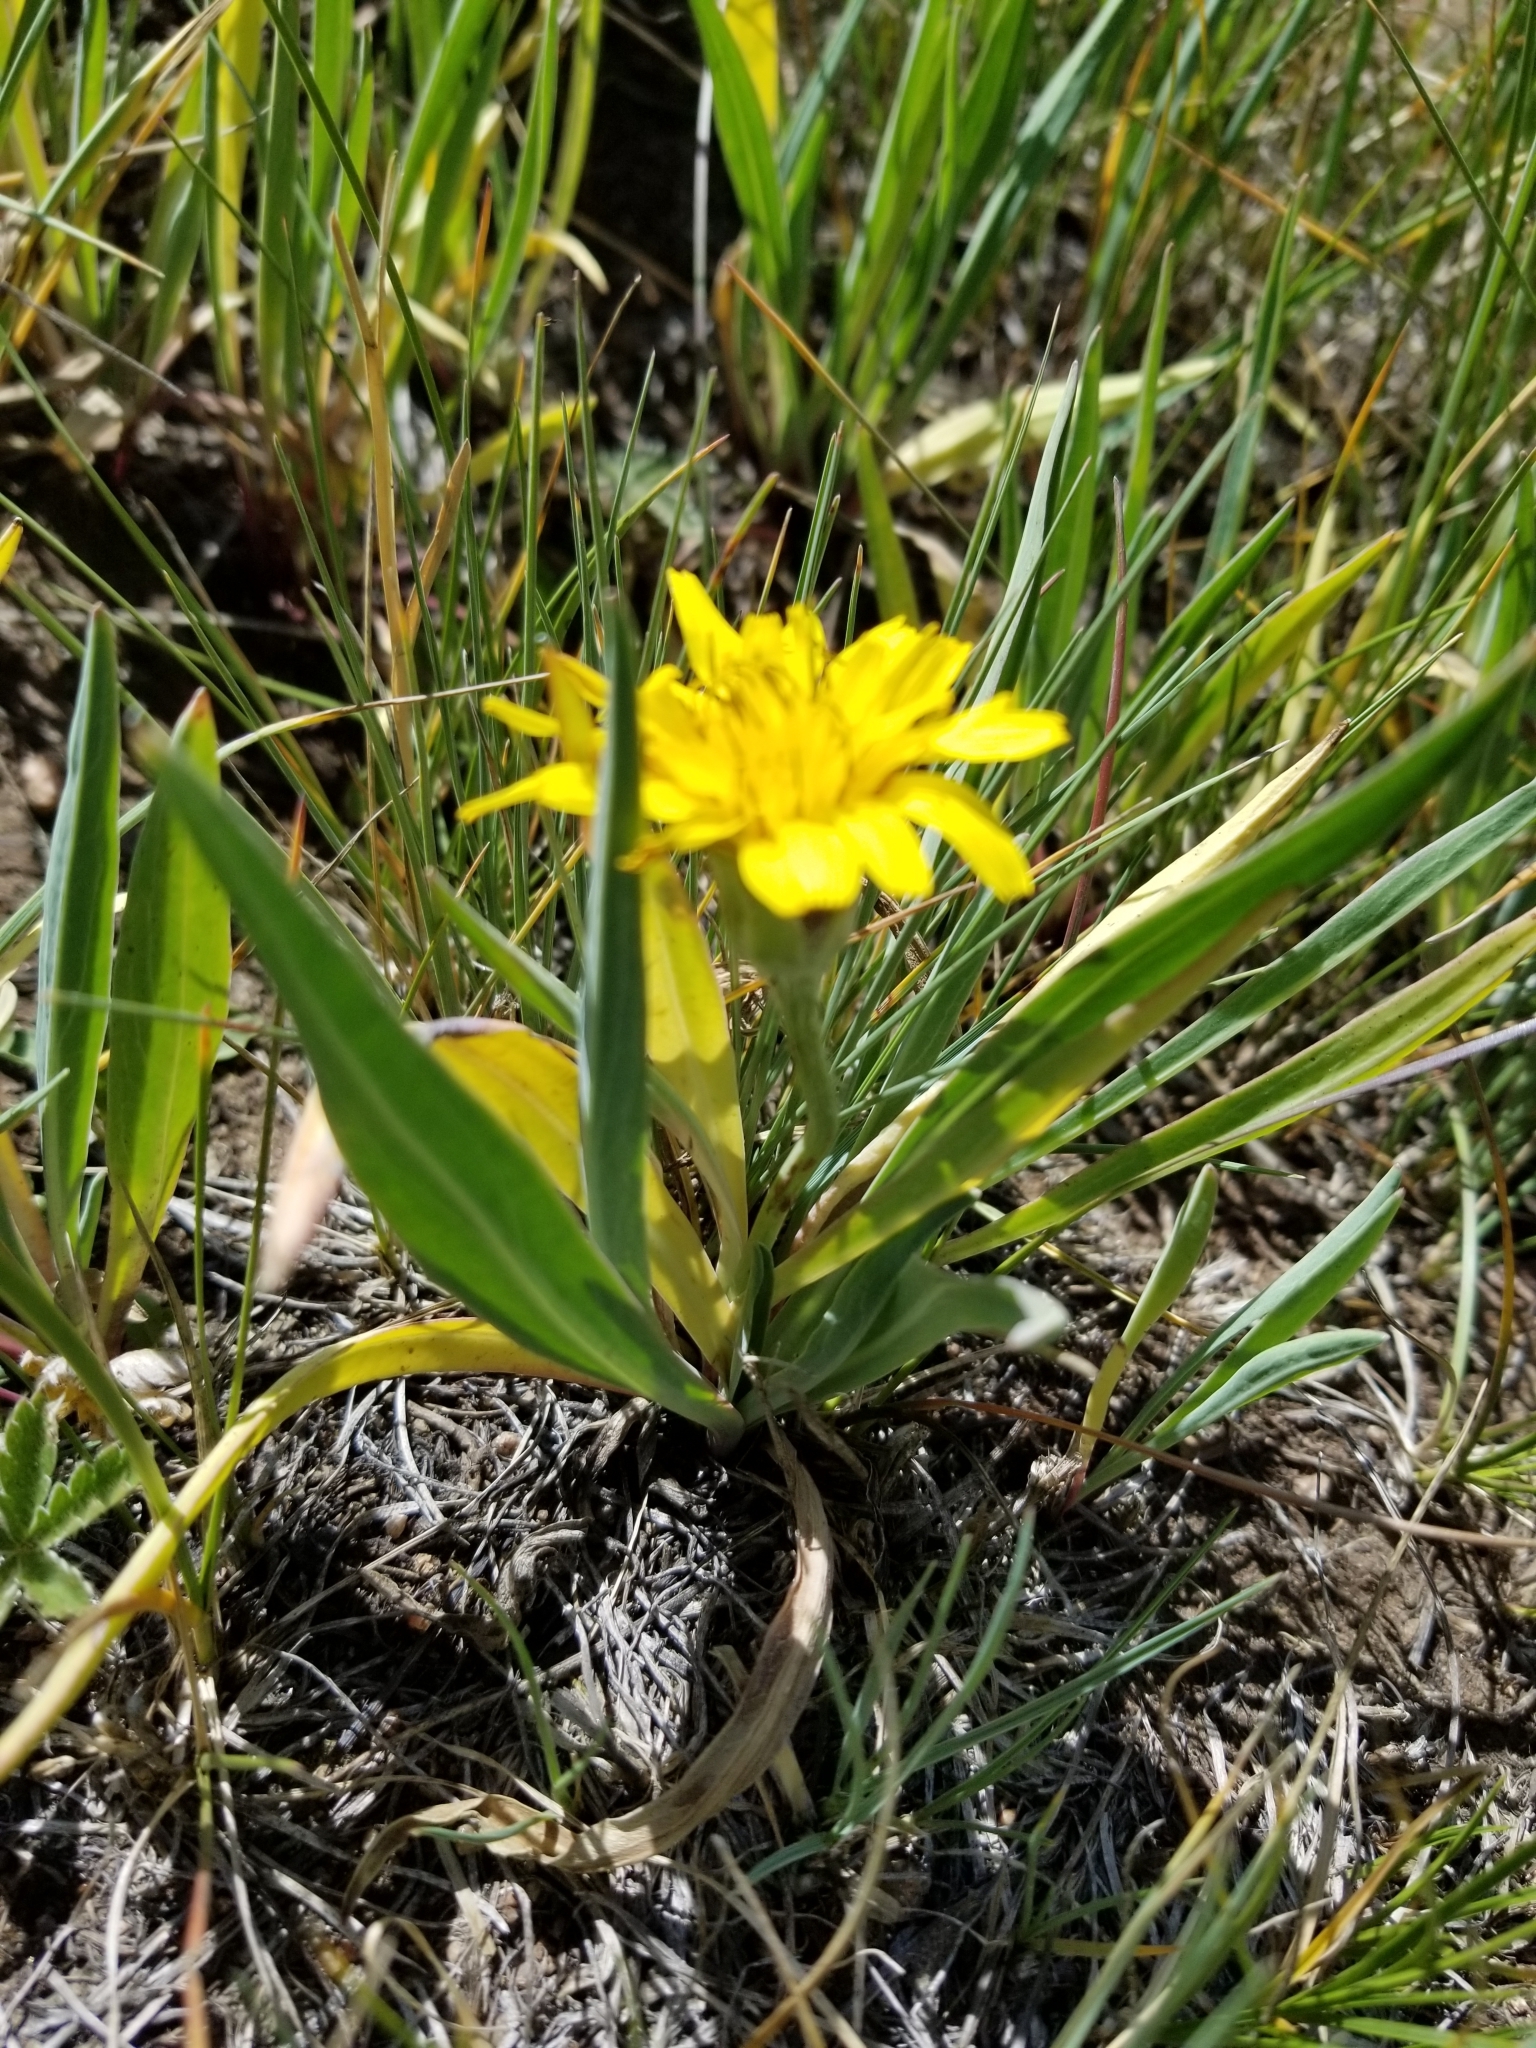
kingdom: Plantae
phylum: Tracheophyta
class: Magnoliopsida
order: Asterales
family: Asteraceae
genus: Agoseris
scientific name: Agoseris glauca
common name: Prairie agoseris
